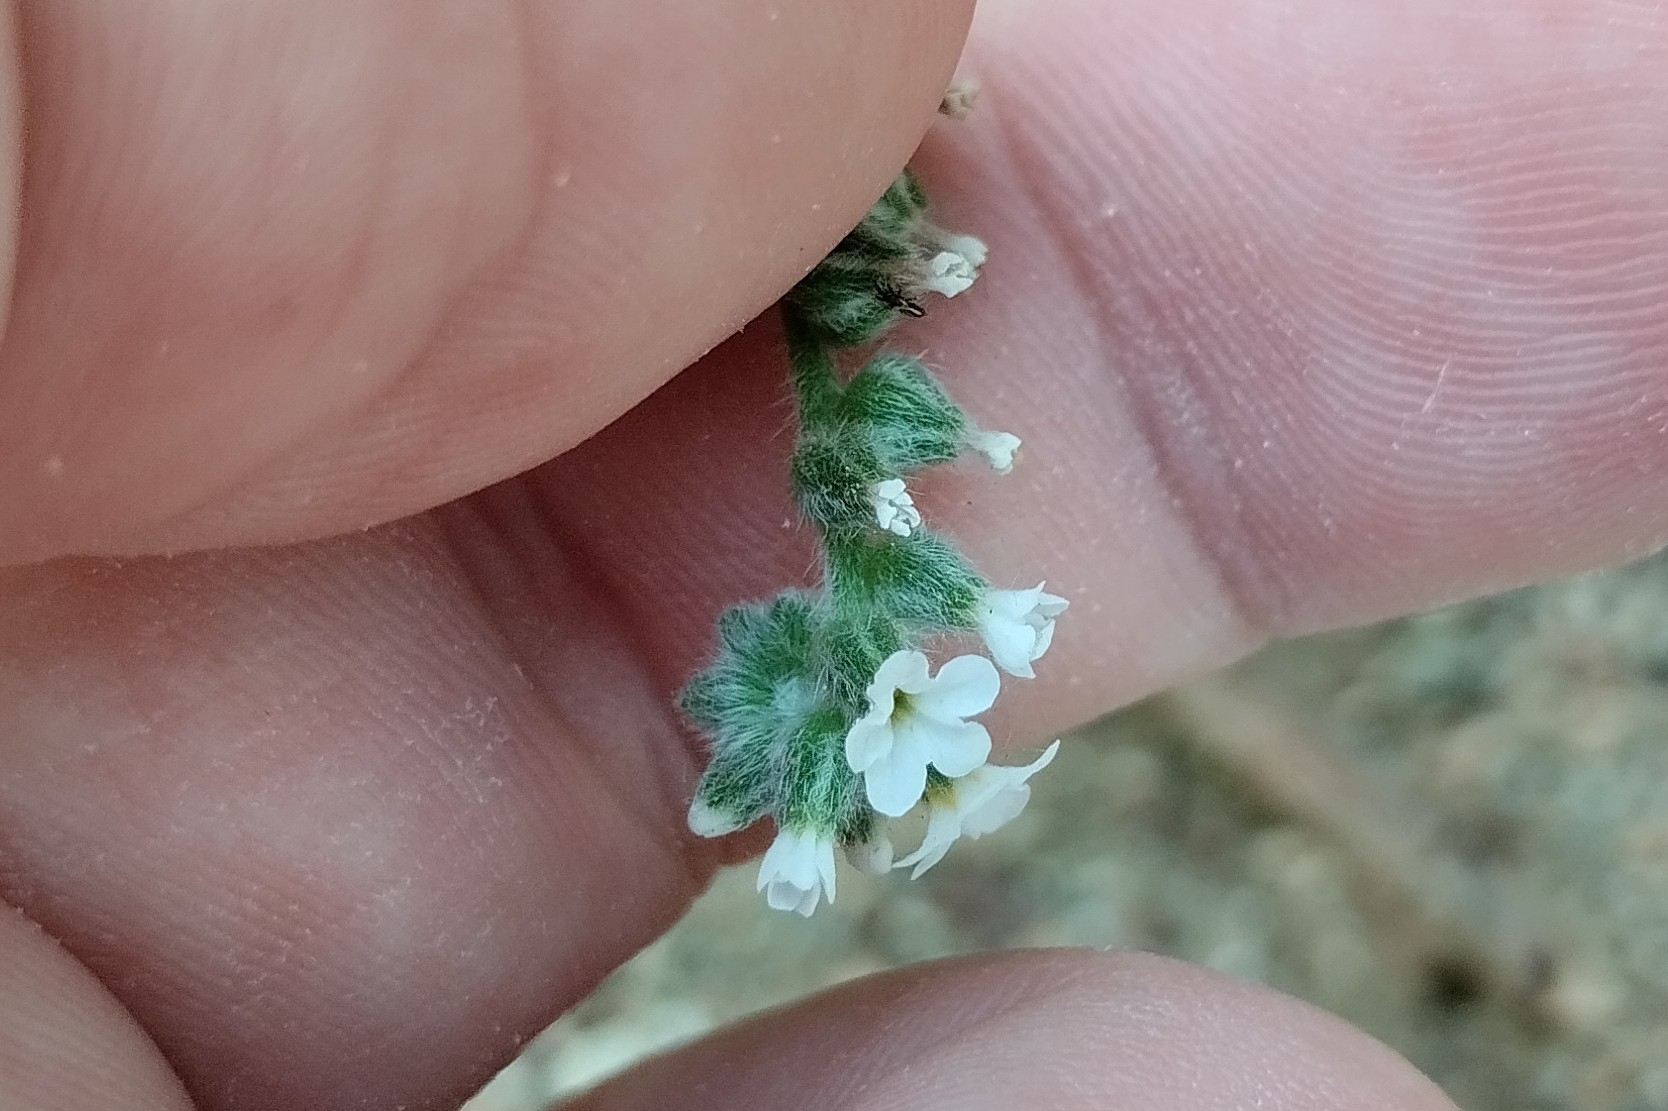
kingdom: Plantae
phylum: Tracheophyta
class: Magnoliopsida
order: Boraginales
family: Heliotropiaceae
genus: Heliotropium
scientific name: Heliotropium dolosum
